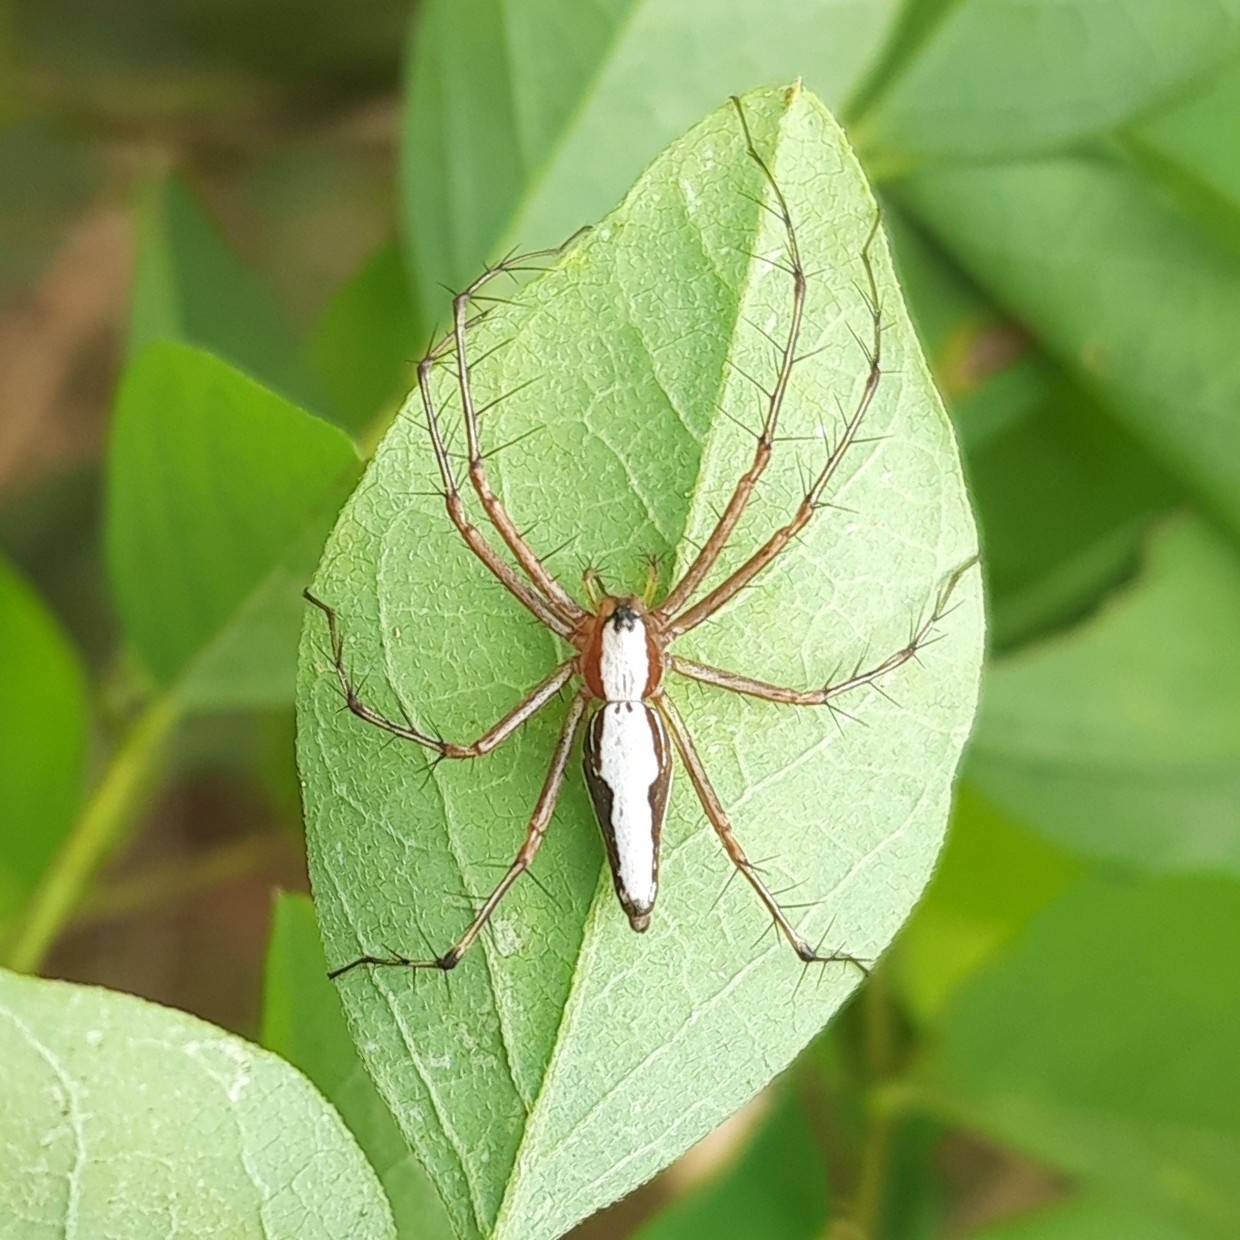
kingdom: Animalia
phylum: Arthropoda
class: Arachnida
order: Araneae
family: Oxyopidae
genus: Oxyopes
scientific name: Oxyopes shweta
